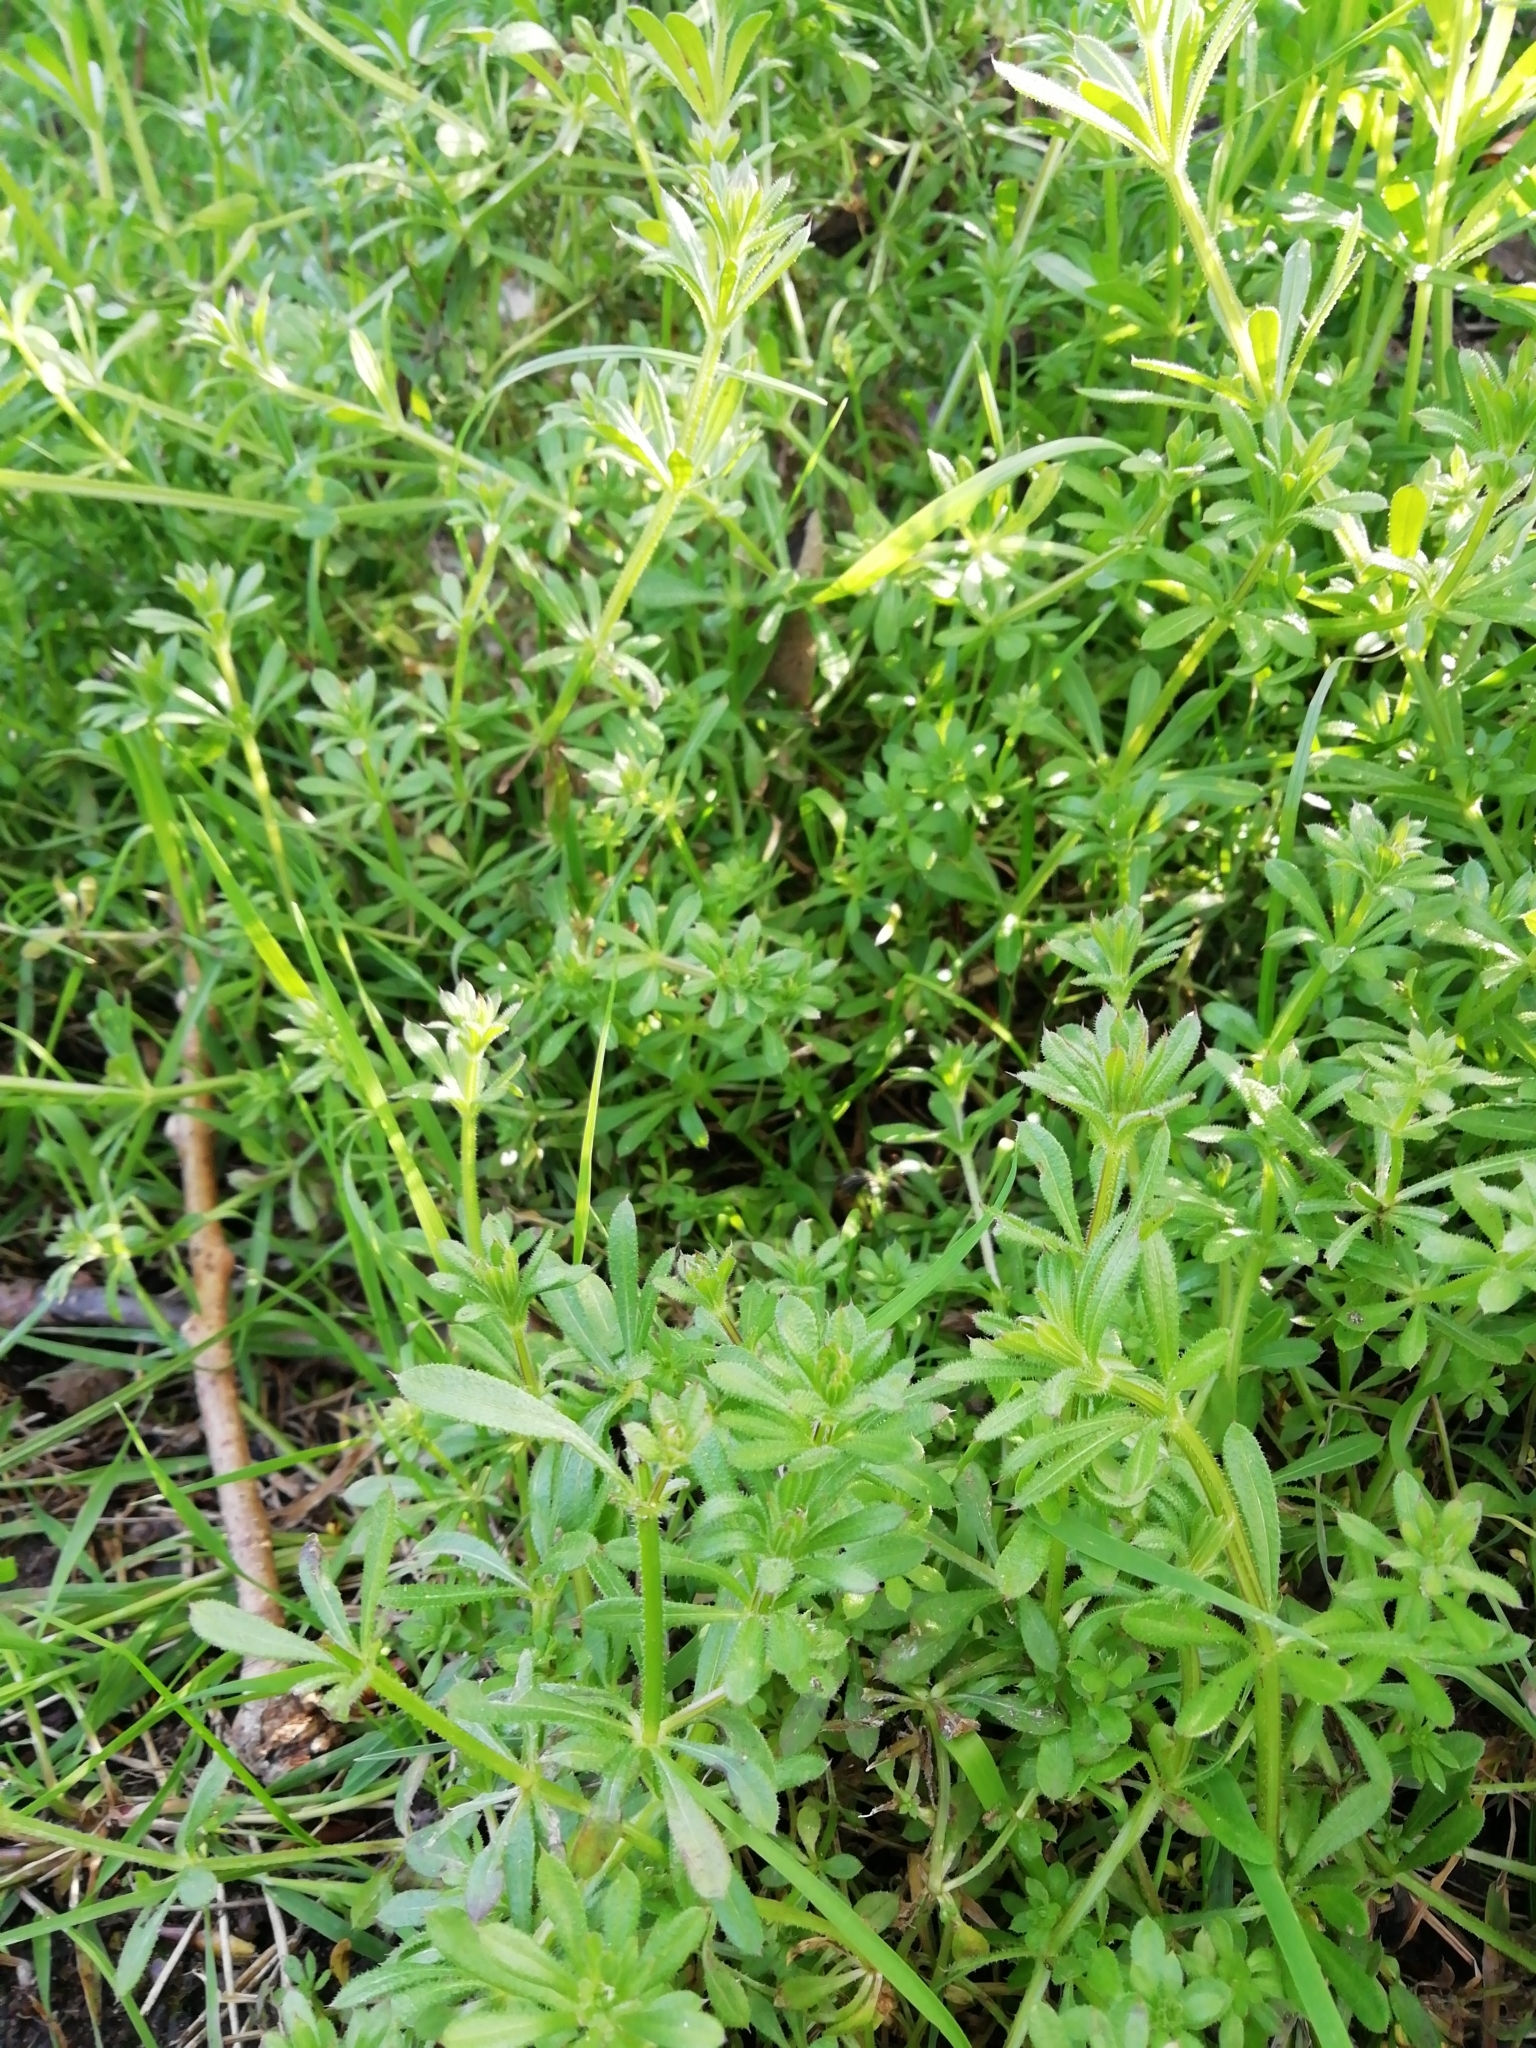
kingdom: Plantae
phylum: Tracheophyta
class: Magnoliopsida
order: Gentianales
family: Rubiaceae
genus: Galium
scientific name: Galium aparine
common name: Cleavers
